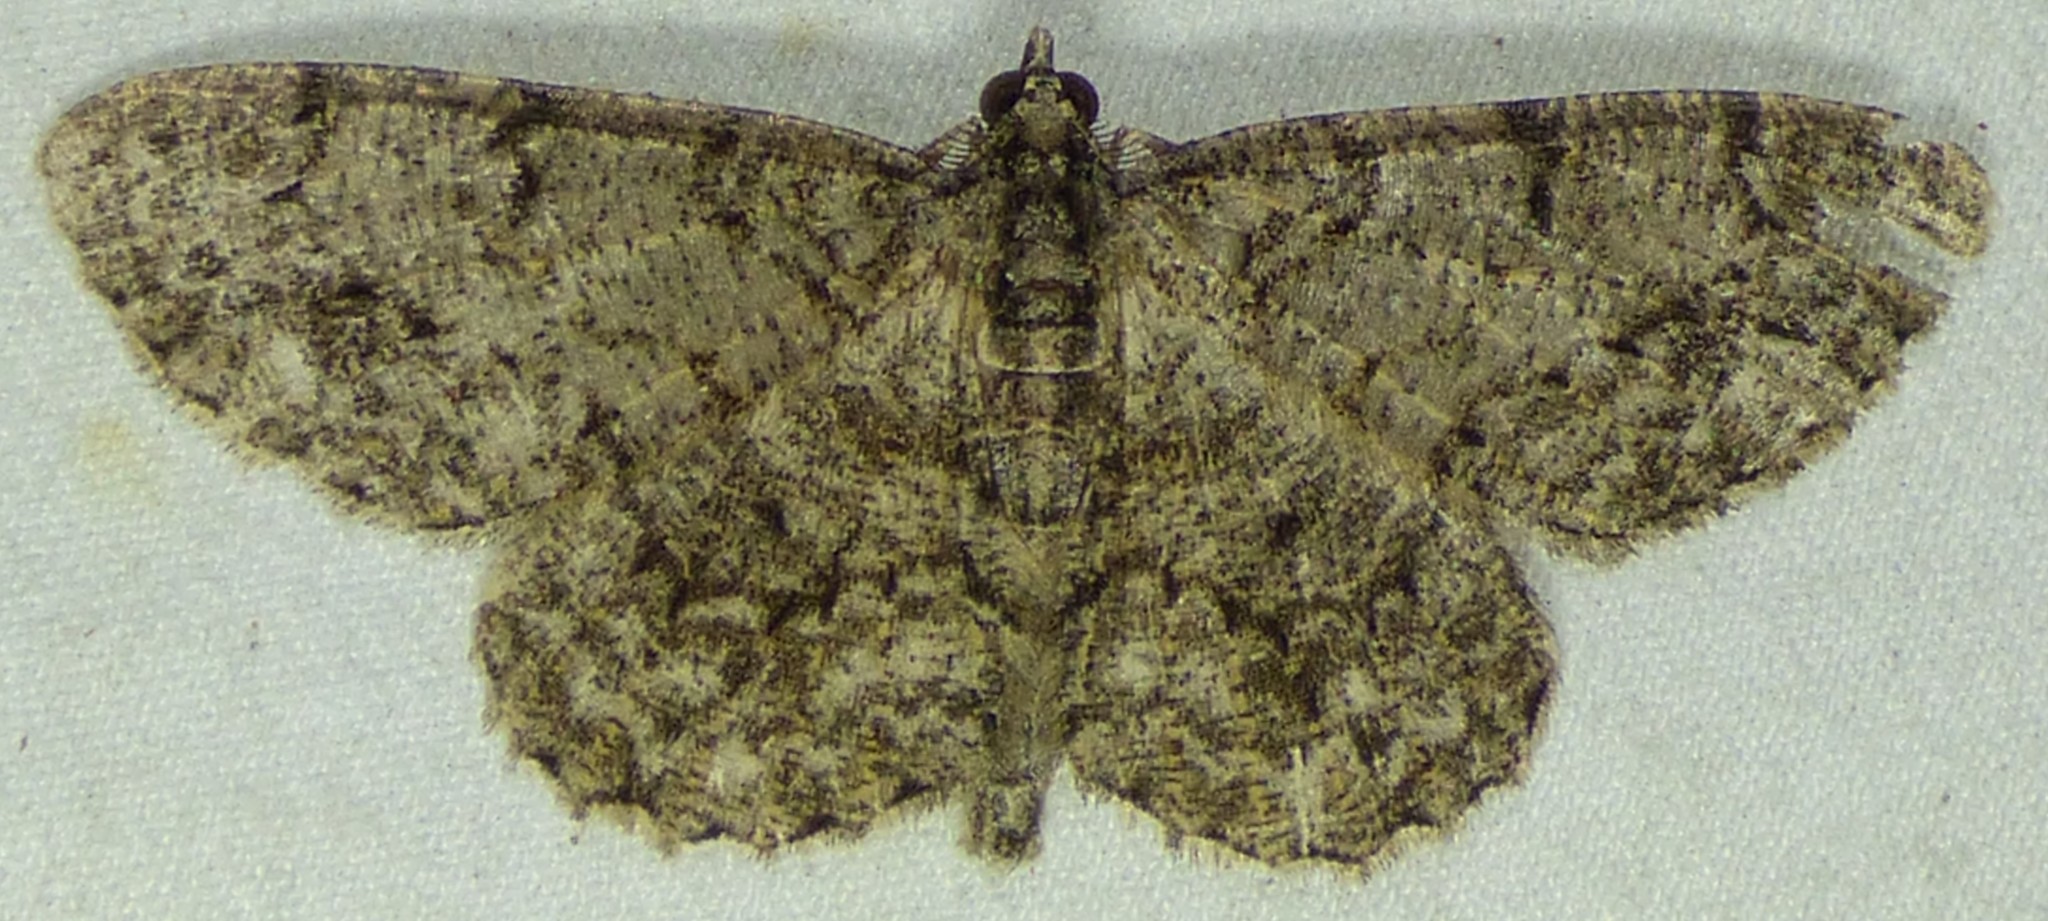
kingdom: Animalia
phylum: Arthropoda
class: Insecta
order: Lepidoptera
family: Geometridae
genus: Protoboarmia
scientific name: Protoboarmia porcelaria
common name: Porcelain gray
